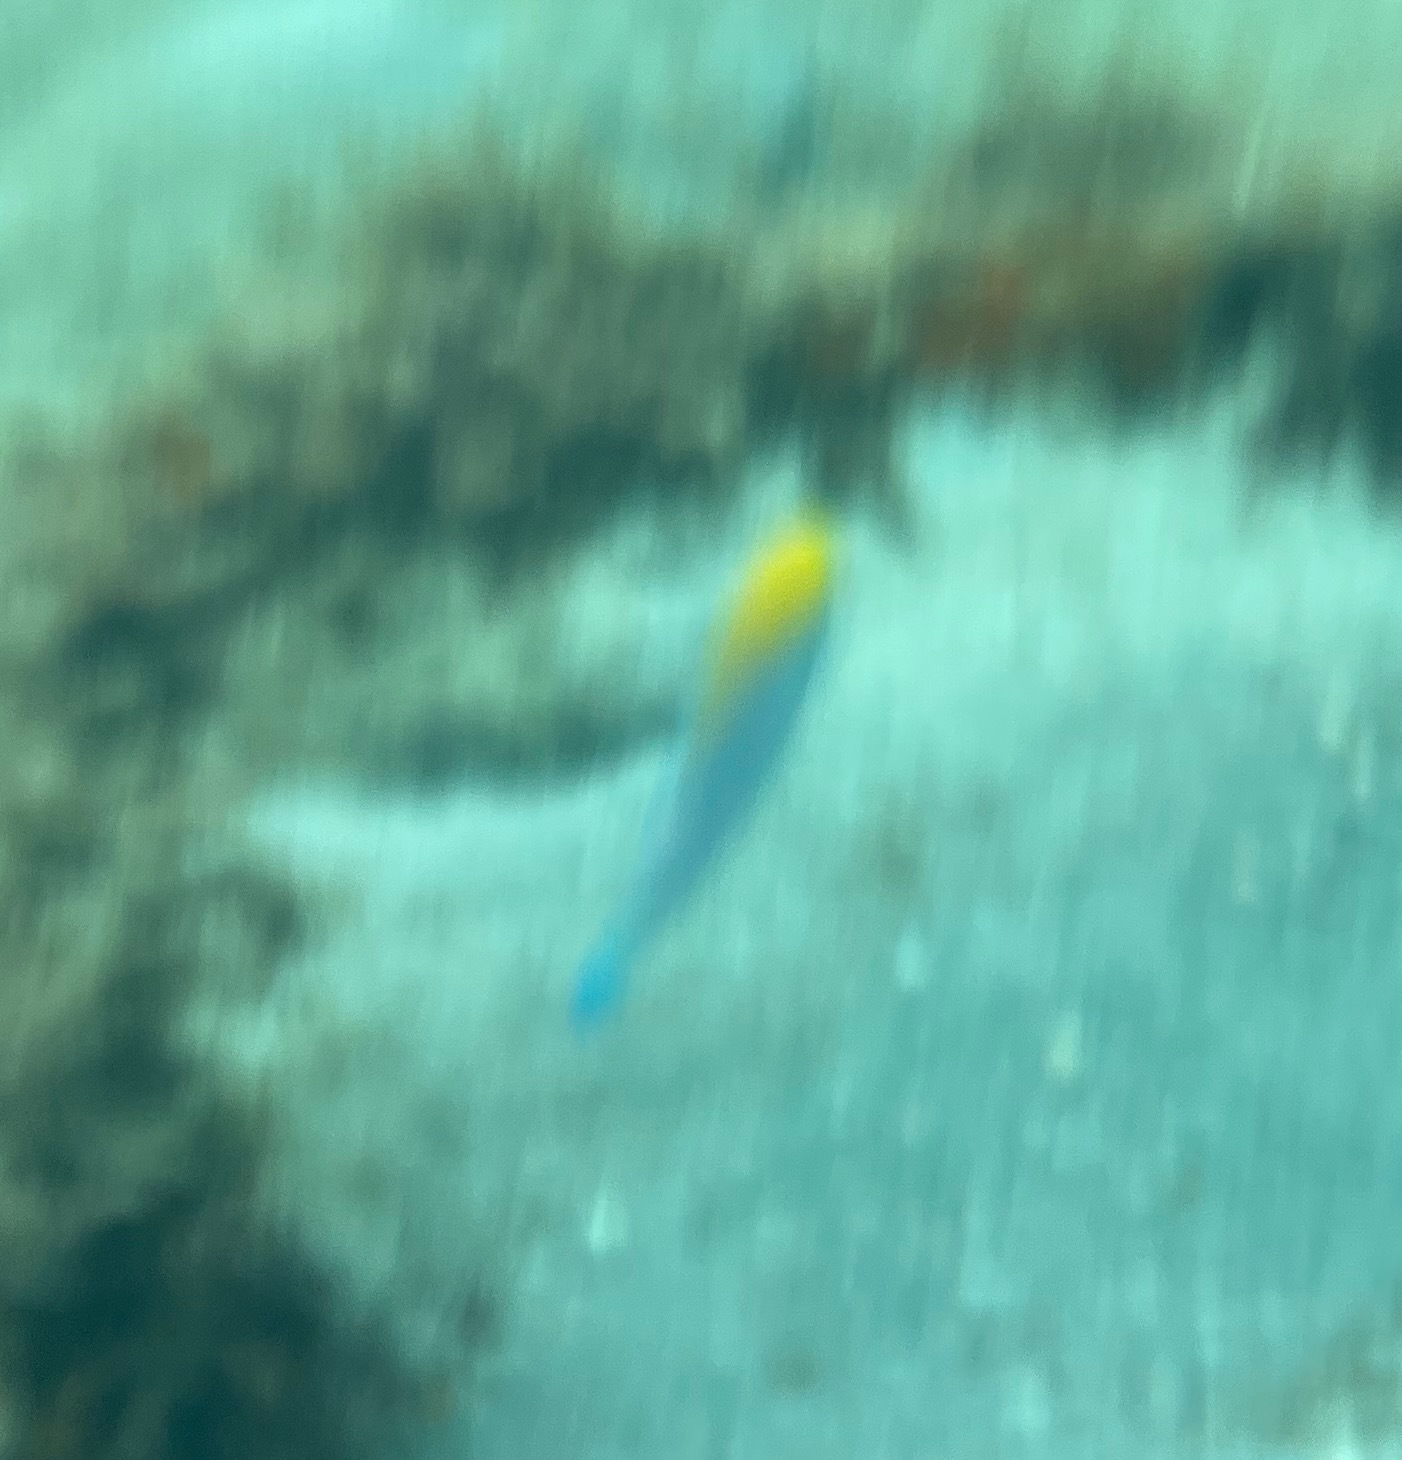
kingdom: Animalia
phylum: Chordata
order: Perciformes
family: Scaridae
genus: Scarus
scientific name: Scarus coeruleus
